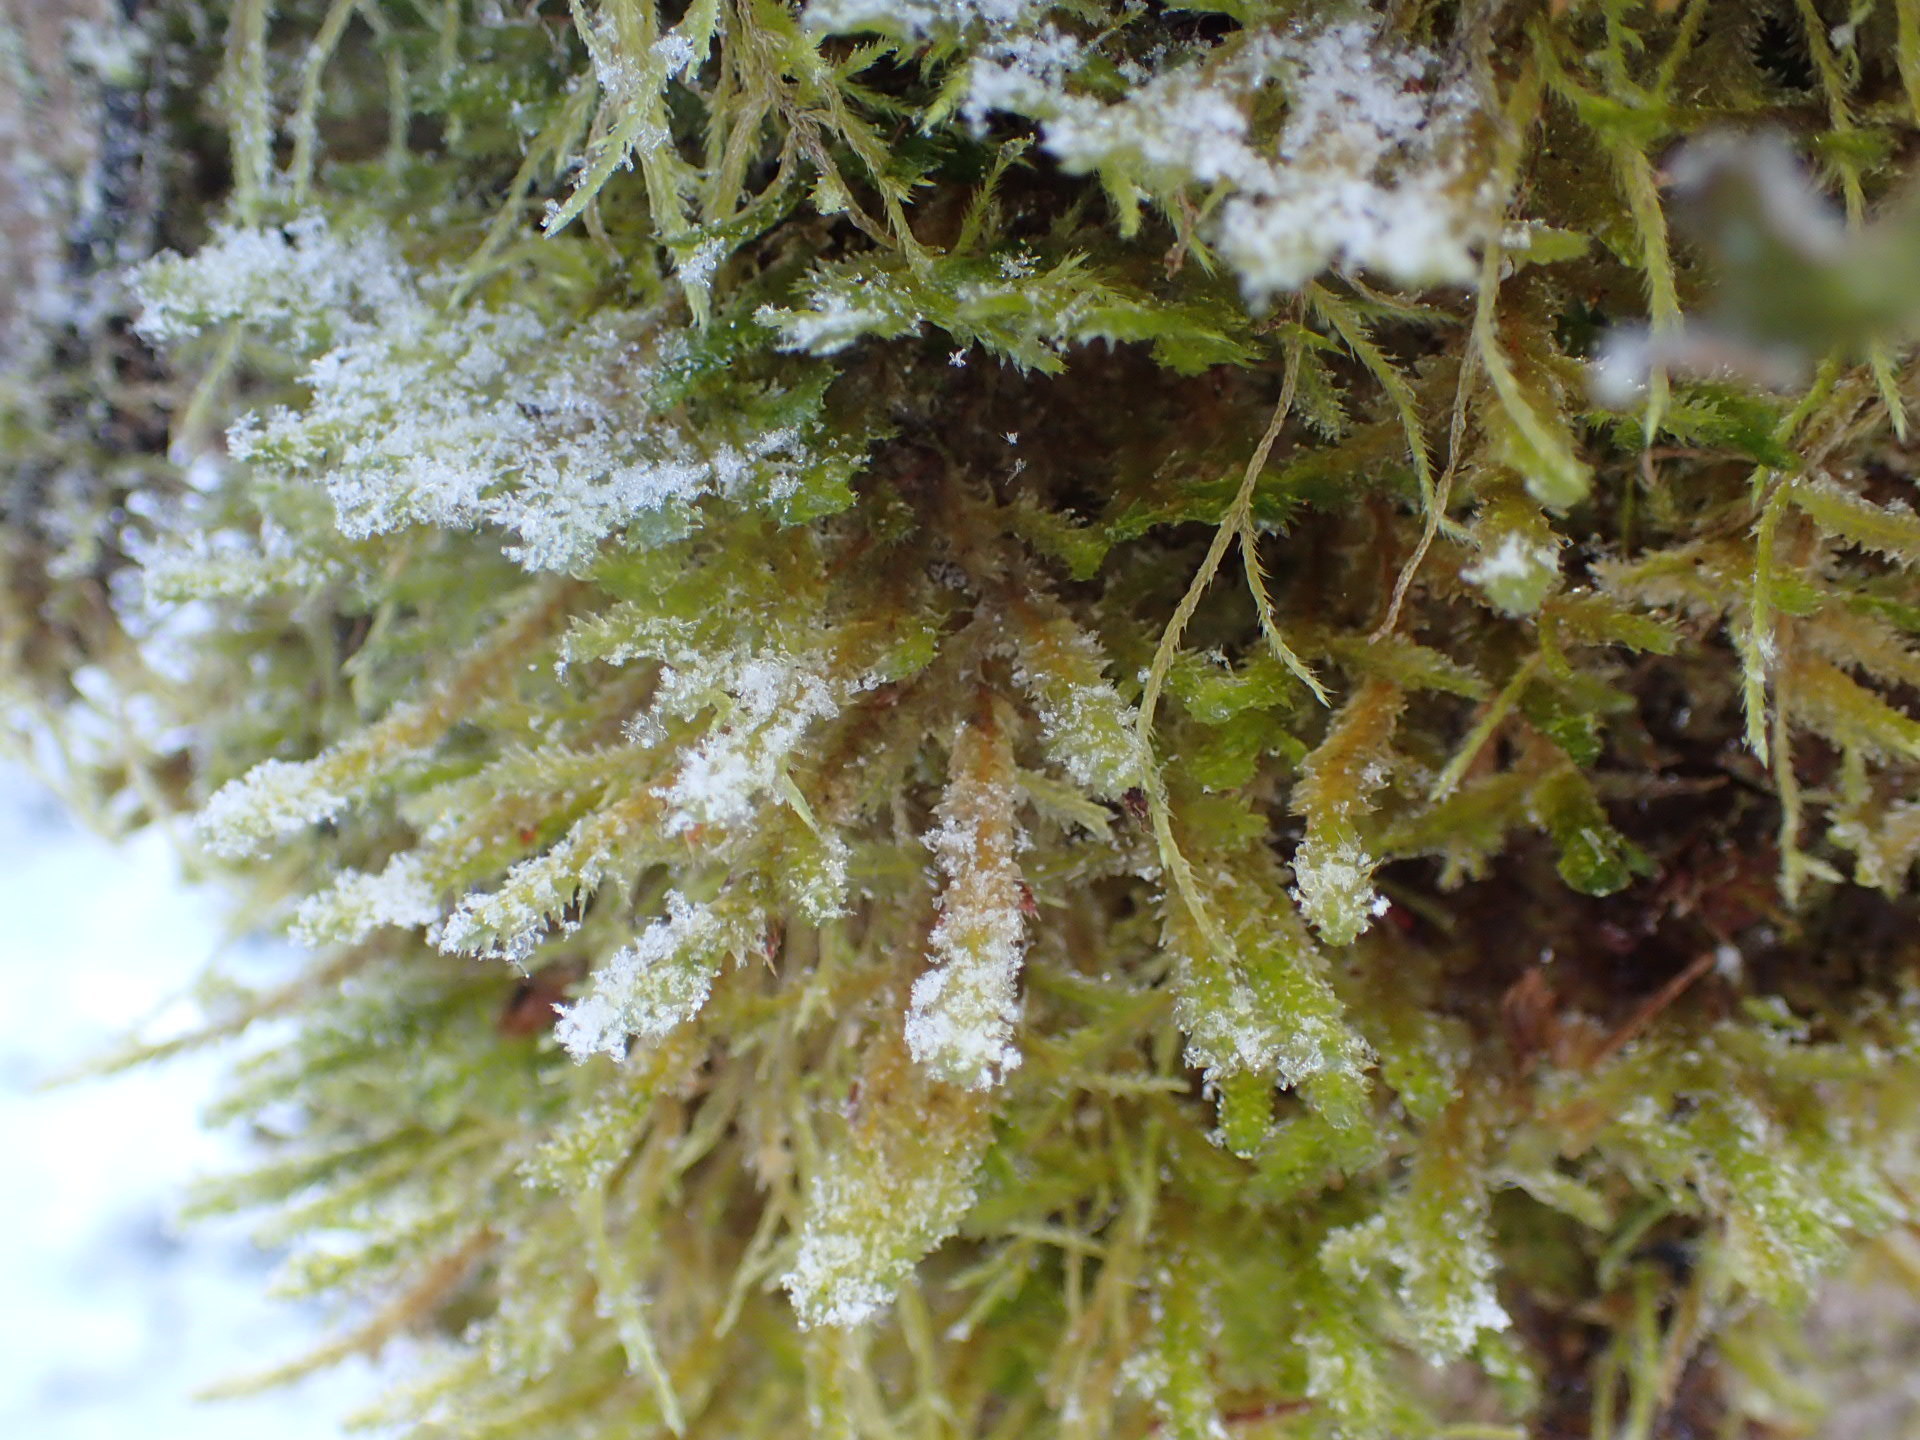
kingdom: Plantae
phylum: Bryophyta
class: Bryopsida
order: Hypnales
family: Neckeraceae
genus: Neckera
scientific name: Neckera pennata
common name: Feathery neckera
